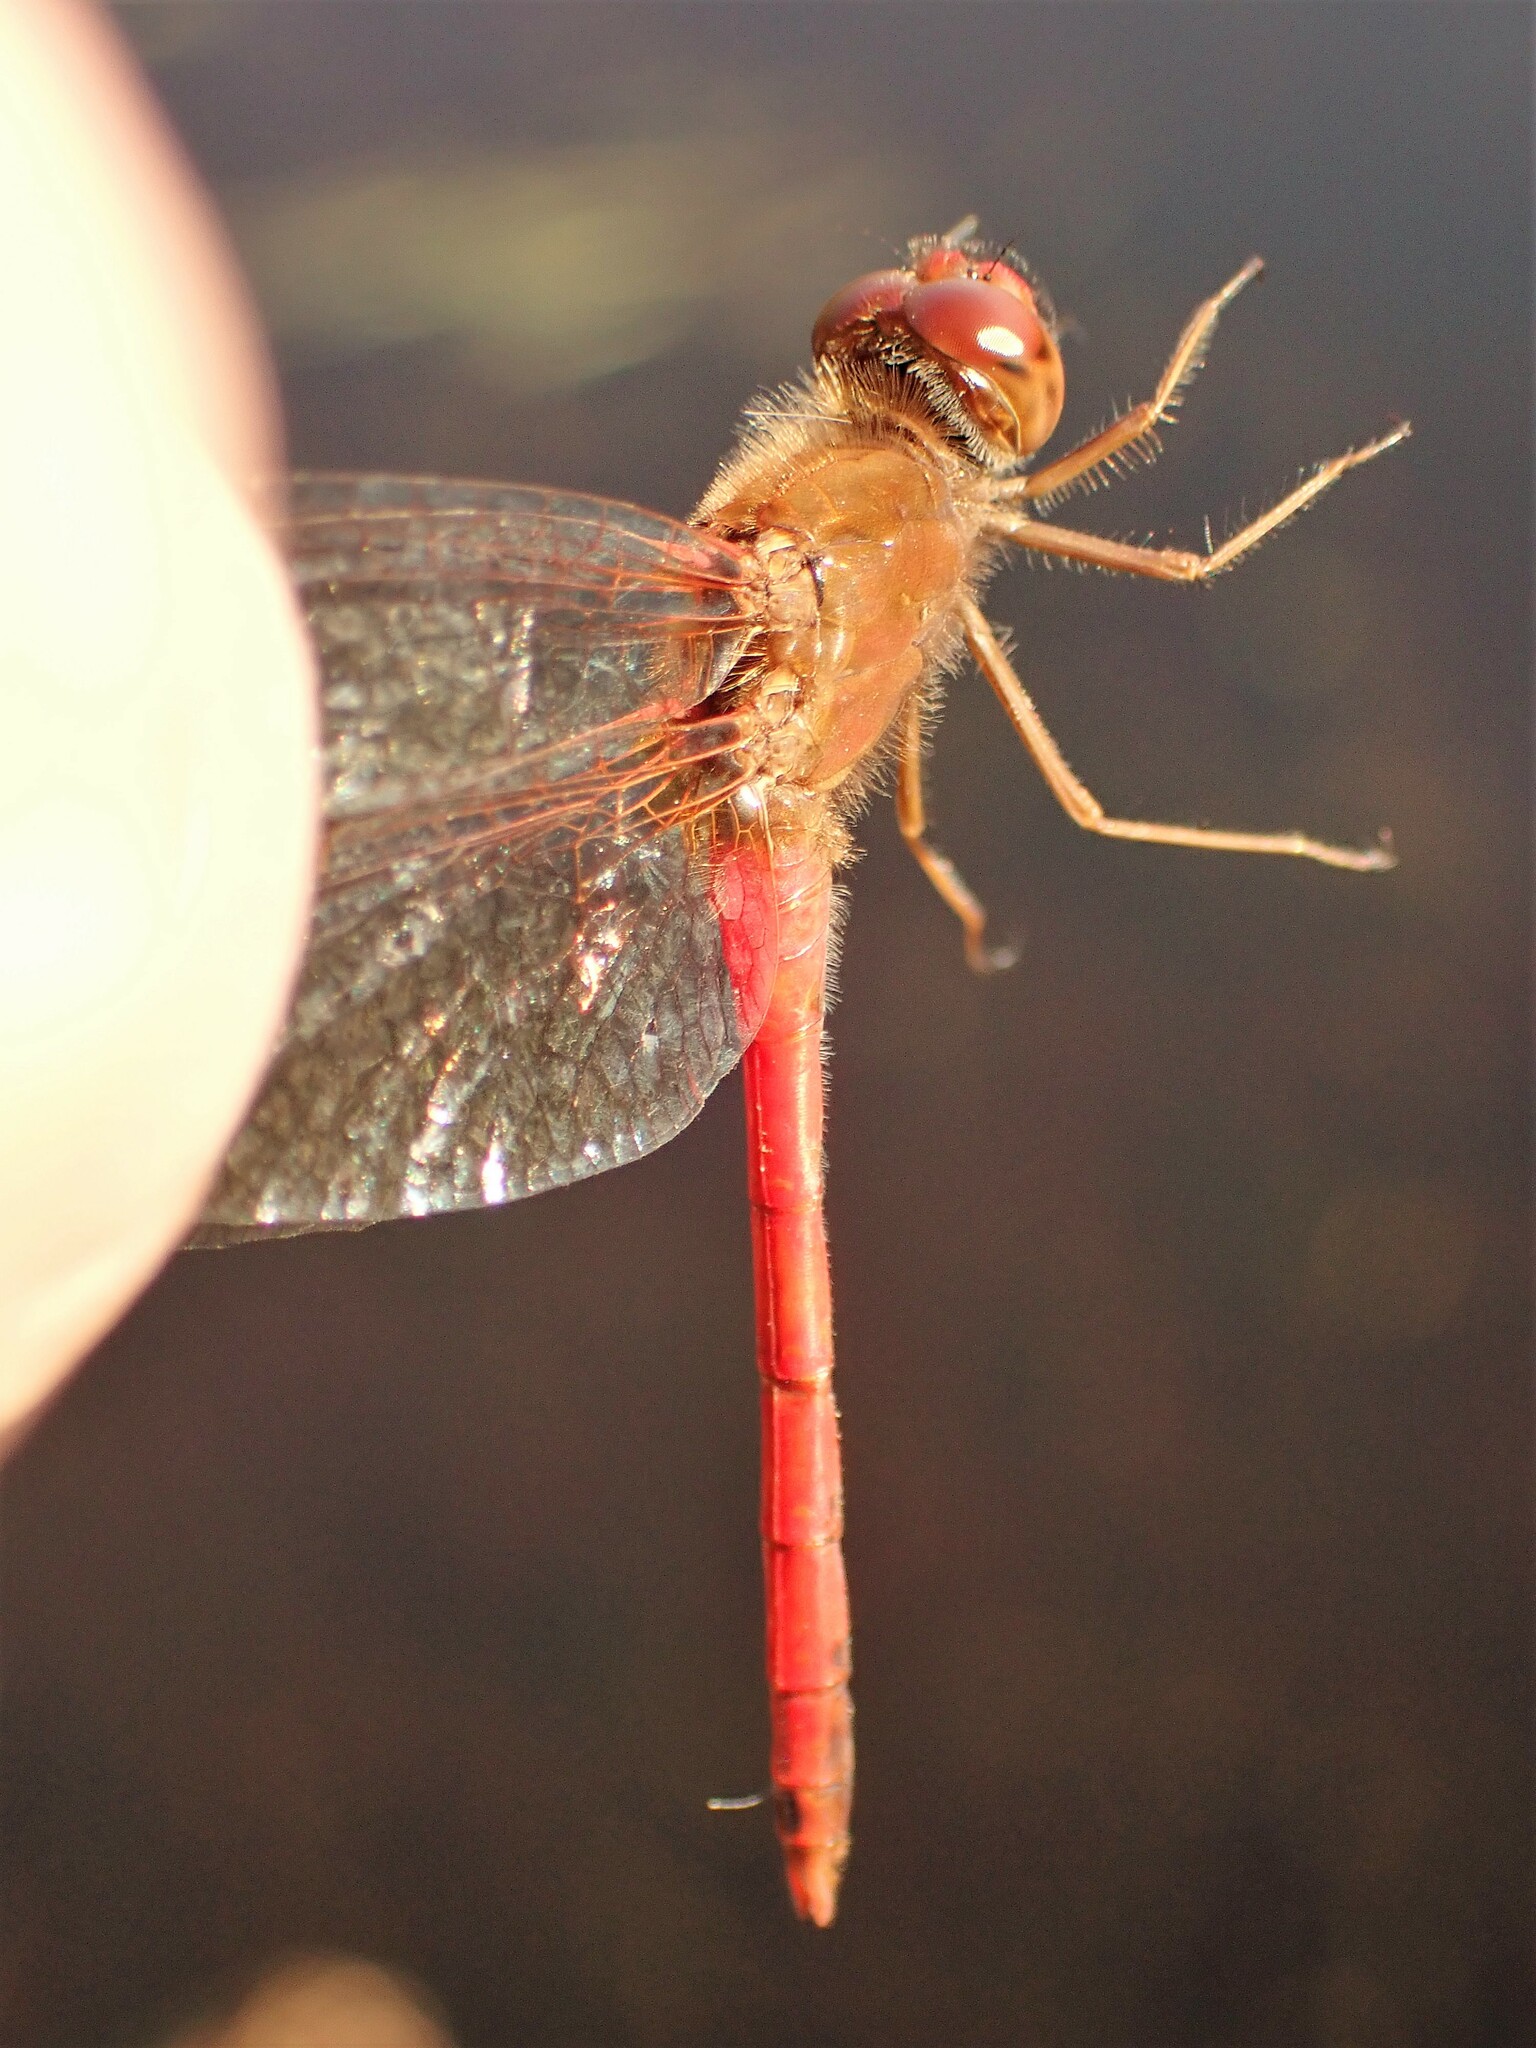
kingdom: Animalia
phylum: Arthropoda
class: Insecta
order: Odonata
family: Libellulidae
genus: Sympetrum
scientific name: Sympetrum vicinum
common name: Autumn meadowhawk
